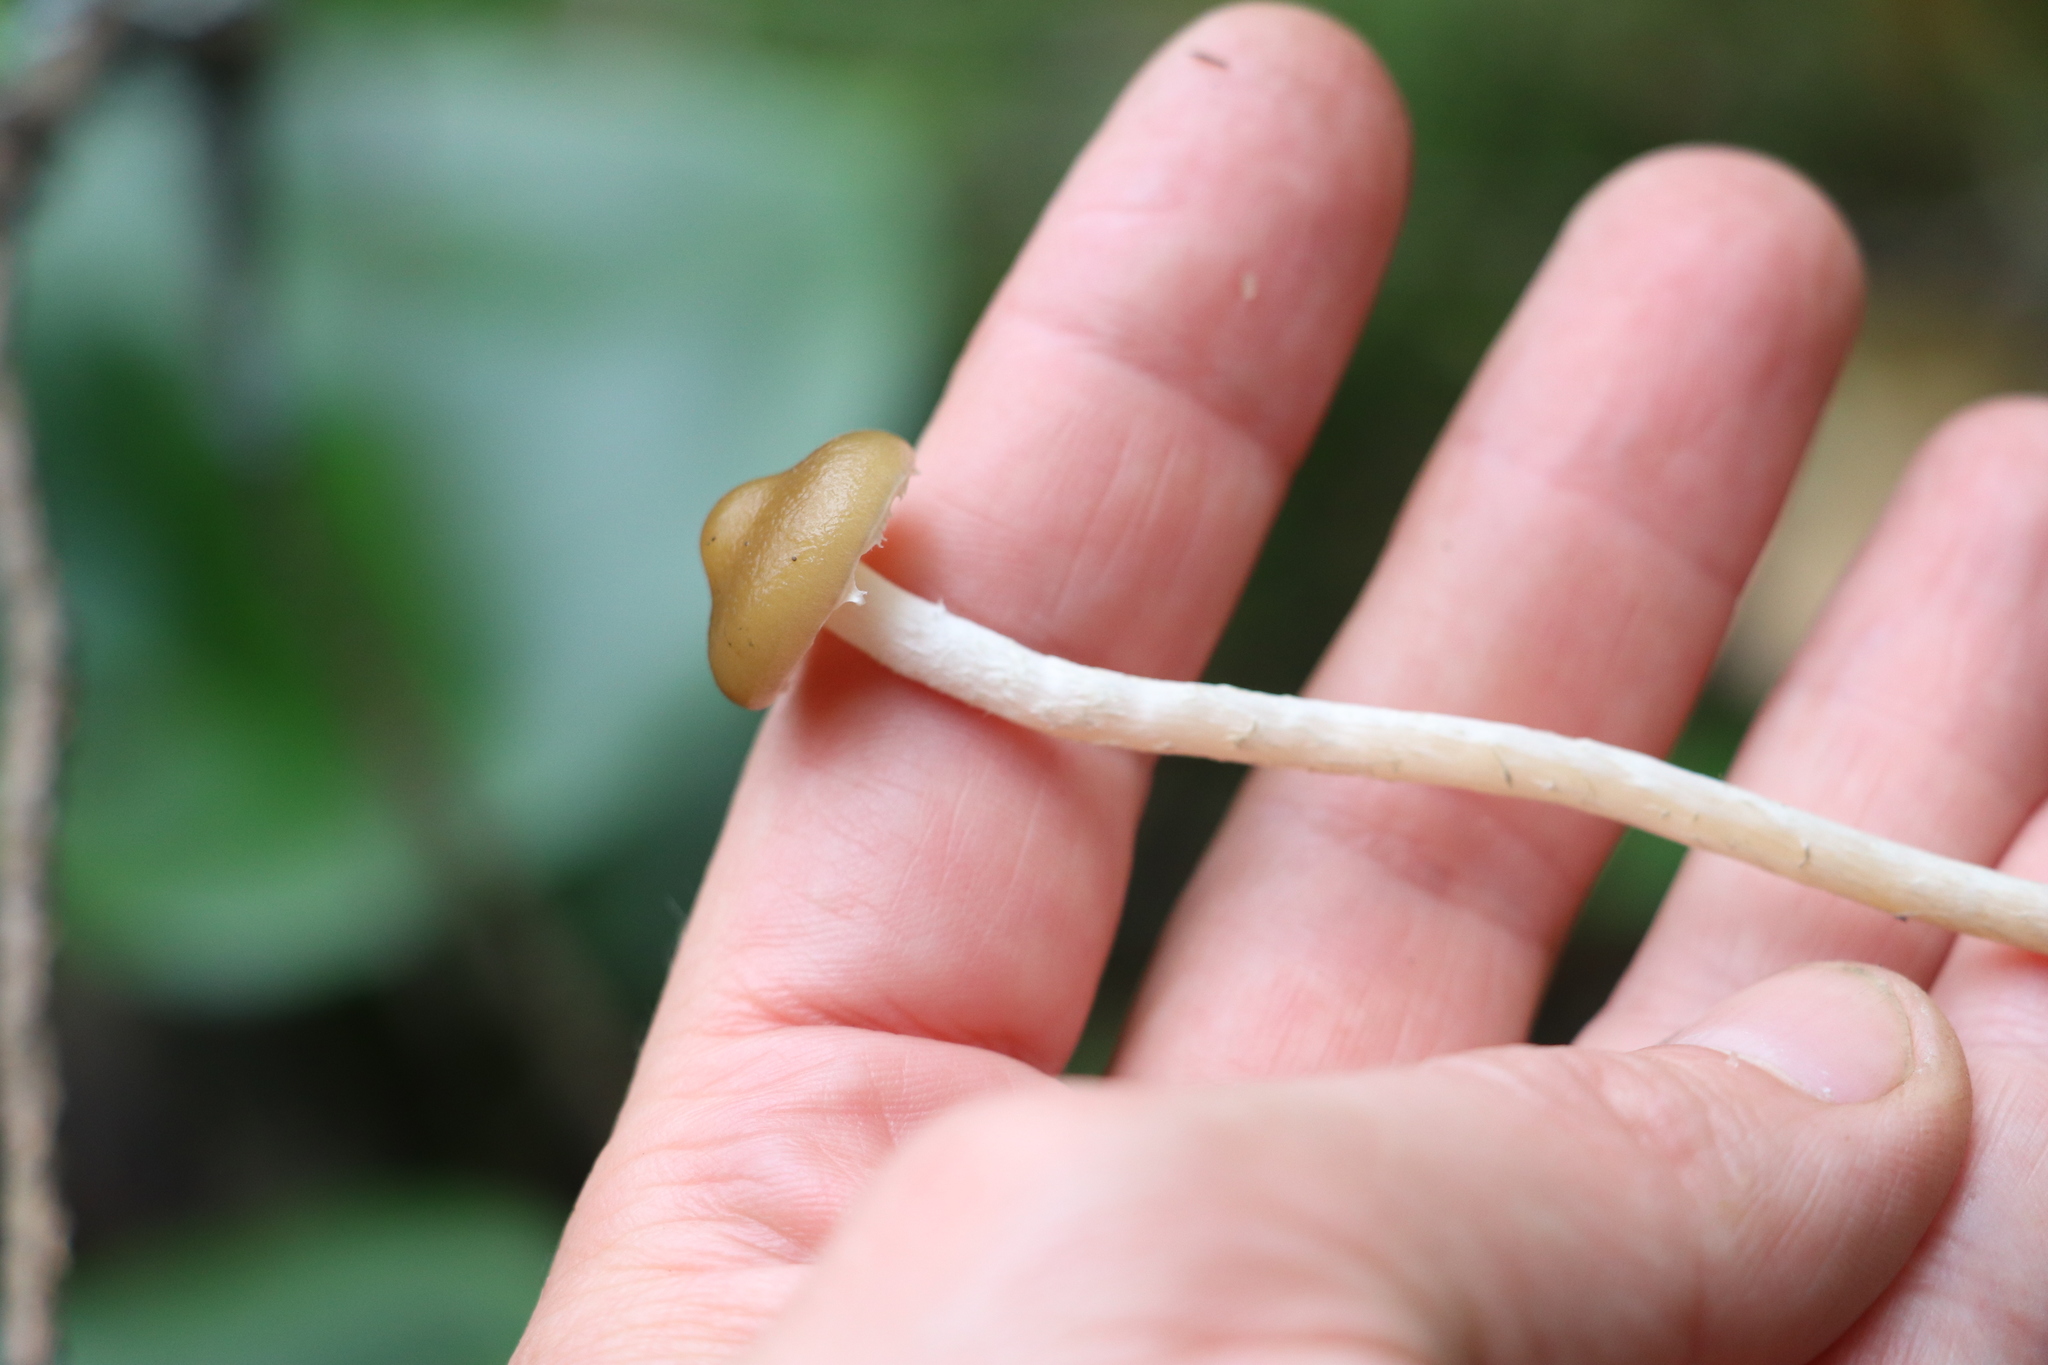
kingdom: Fungi
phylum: Basidiomycota
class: Agaricomycetes
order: Agaricales
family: Strophariaceae
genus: Hypholoma
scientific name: Hypholoma myosotis
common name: Olive brownie
